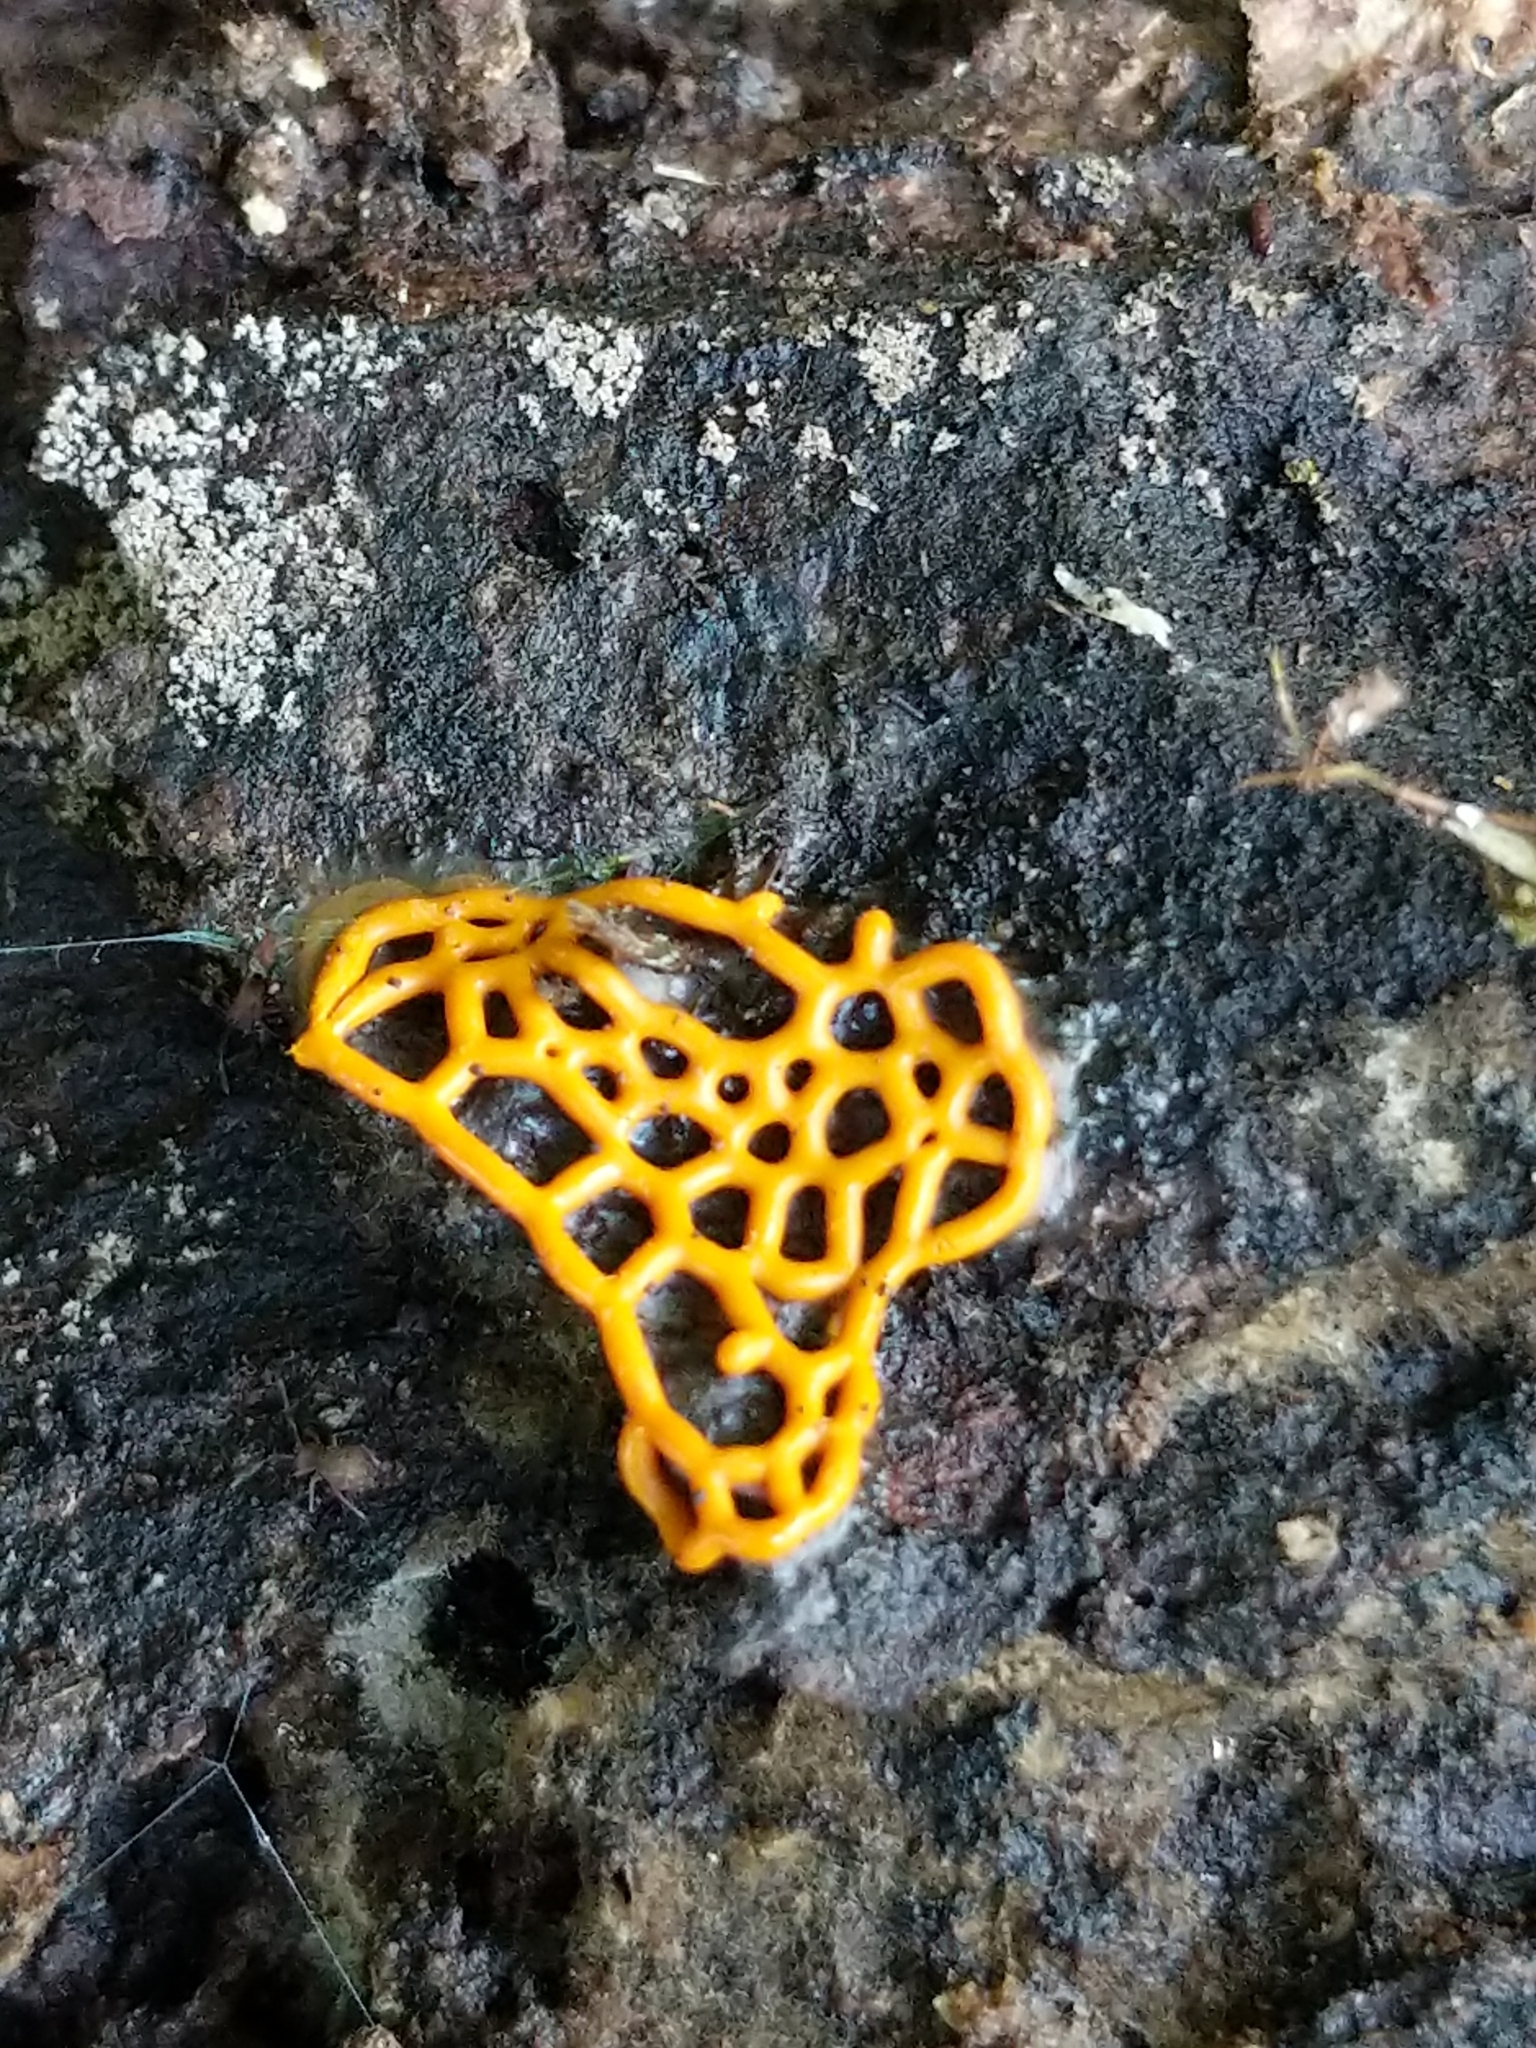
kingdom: Protozoa
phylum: Mycetozoa
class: Myxomycetes
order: Trichiales
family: Arcyriaceae
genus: Hemitrichia
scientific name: Hemitrichia serpula
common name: Pretzel slime mold
